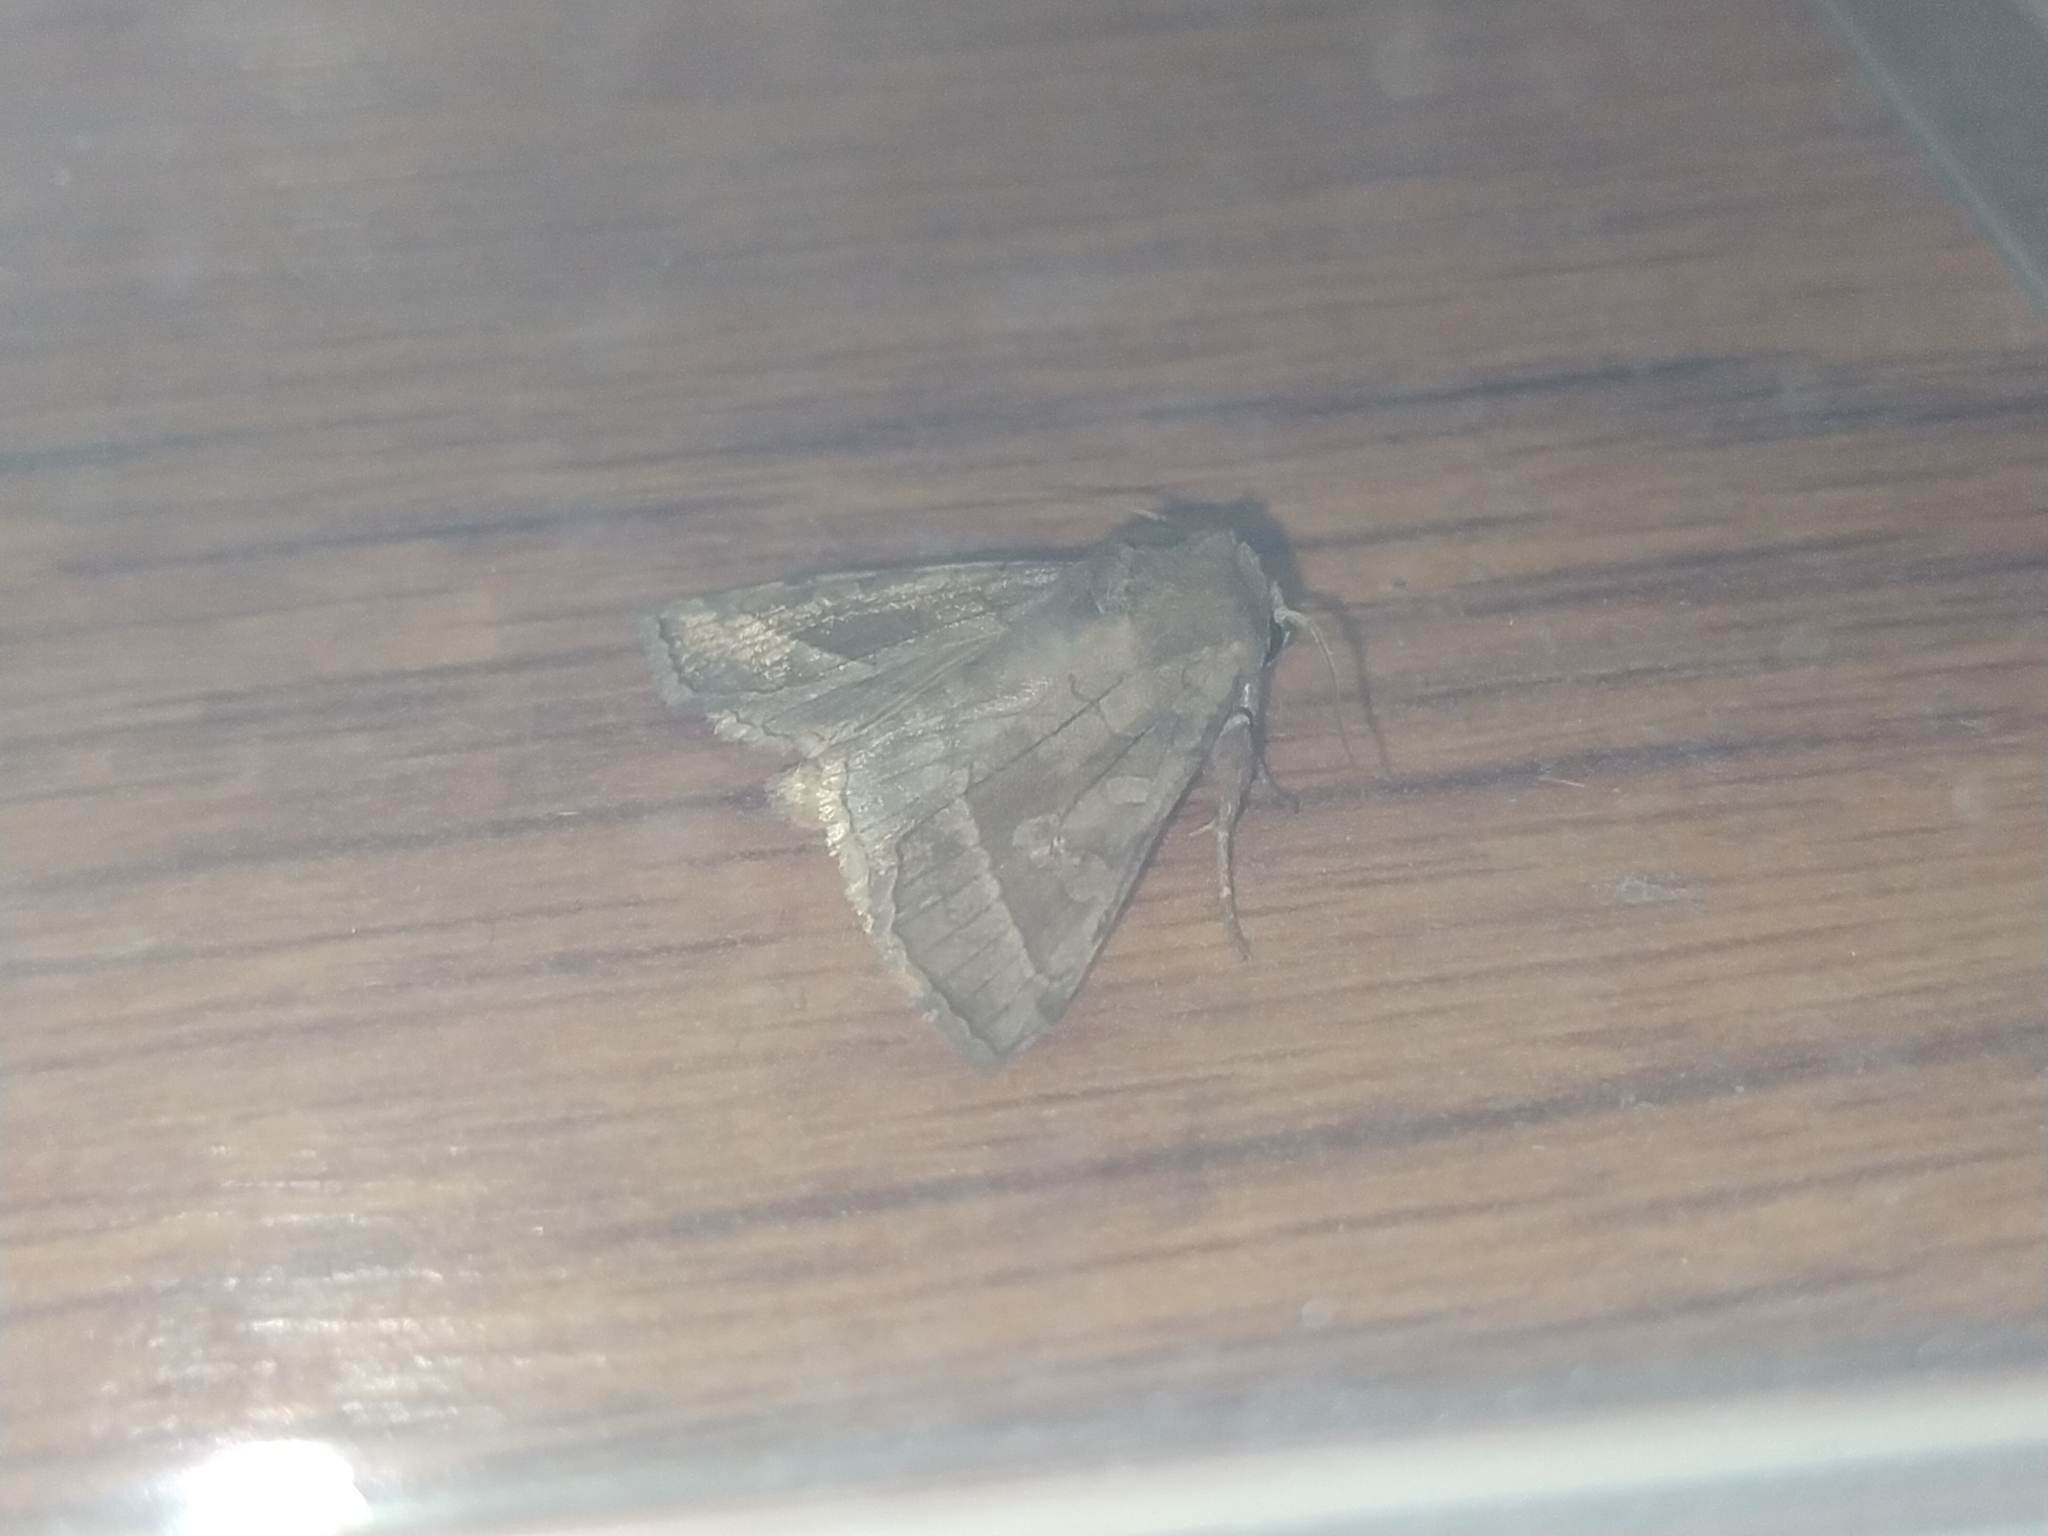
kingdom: Animalia
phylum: Arthropoda
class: Insecta
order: Lepidoptera
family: Noctuidae
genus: Hydraecia
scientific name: Hydraecia micacea
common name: Rosy rustic
